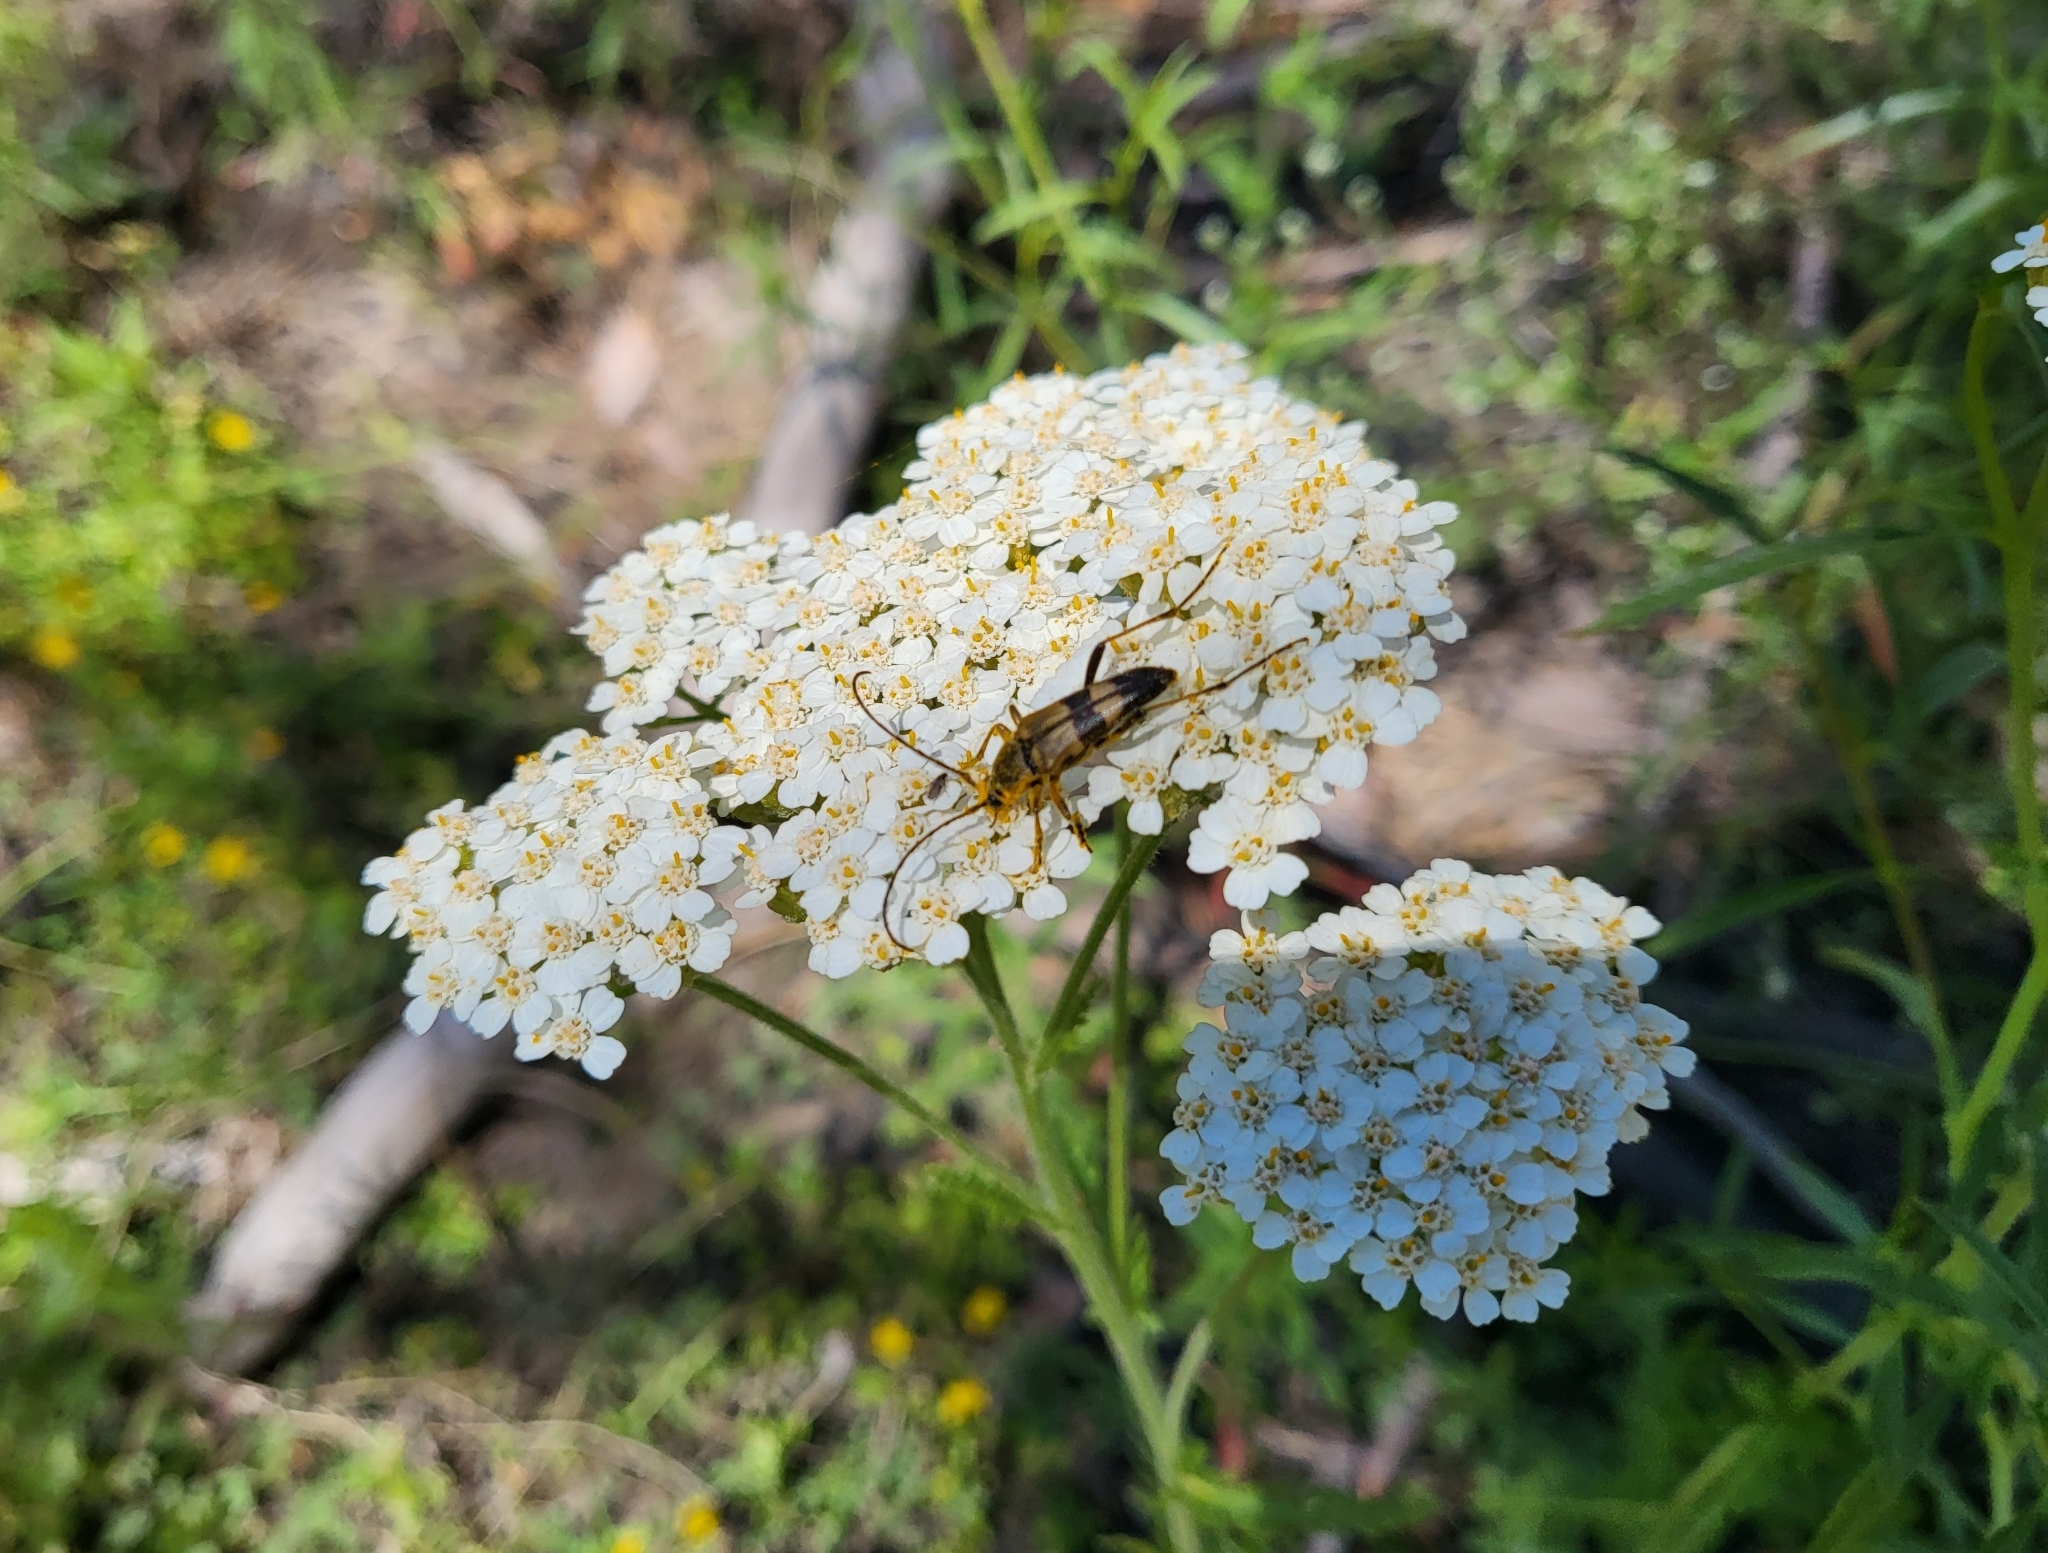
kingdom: Plantae
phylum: Tracheophyta
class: Magnoliopsida
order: Asterales
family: Asteraceae
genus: Achillea
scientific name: Achillea millefolium
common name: Yarrow
